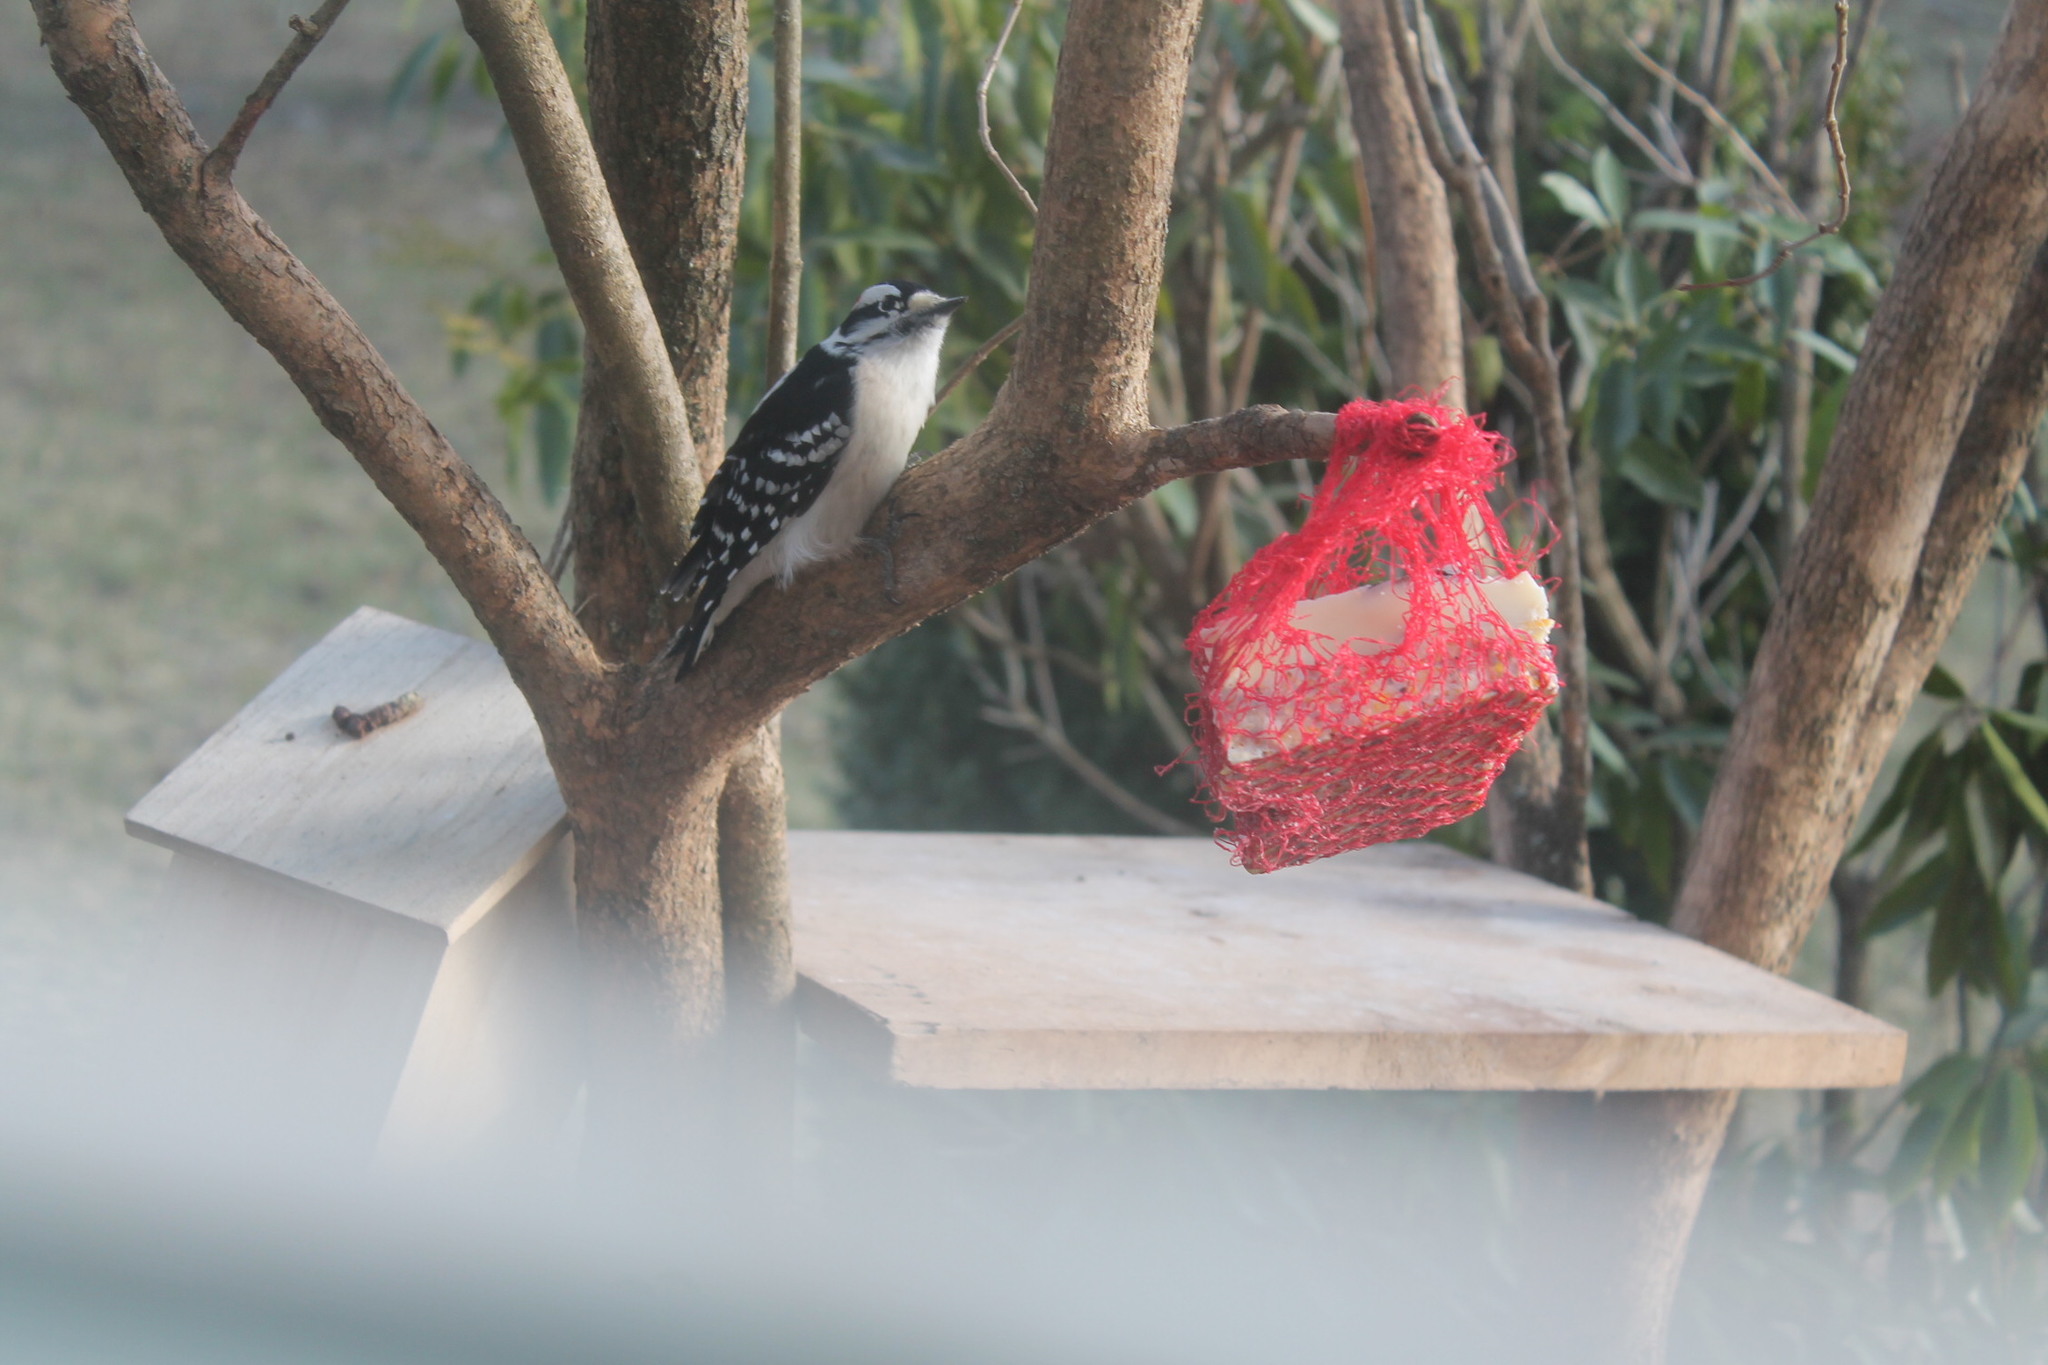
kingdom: Animalia
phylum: Chordata
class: Aves
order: Piciformes
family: Picidae
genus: Dryobates
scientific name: Dryobates pubescens
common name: Downy woodpecker
